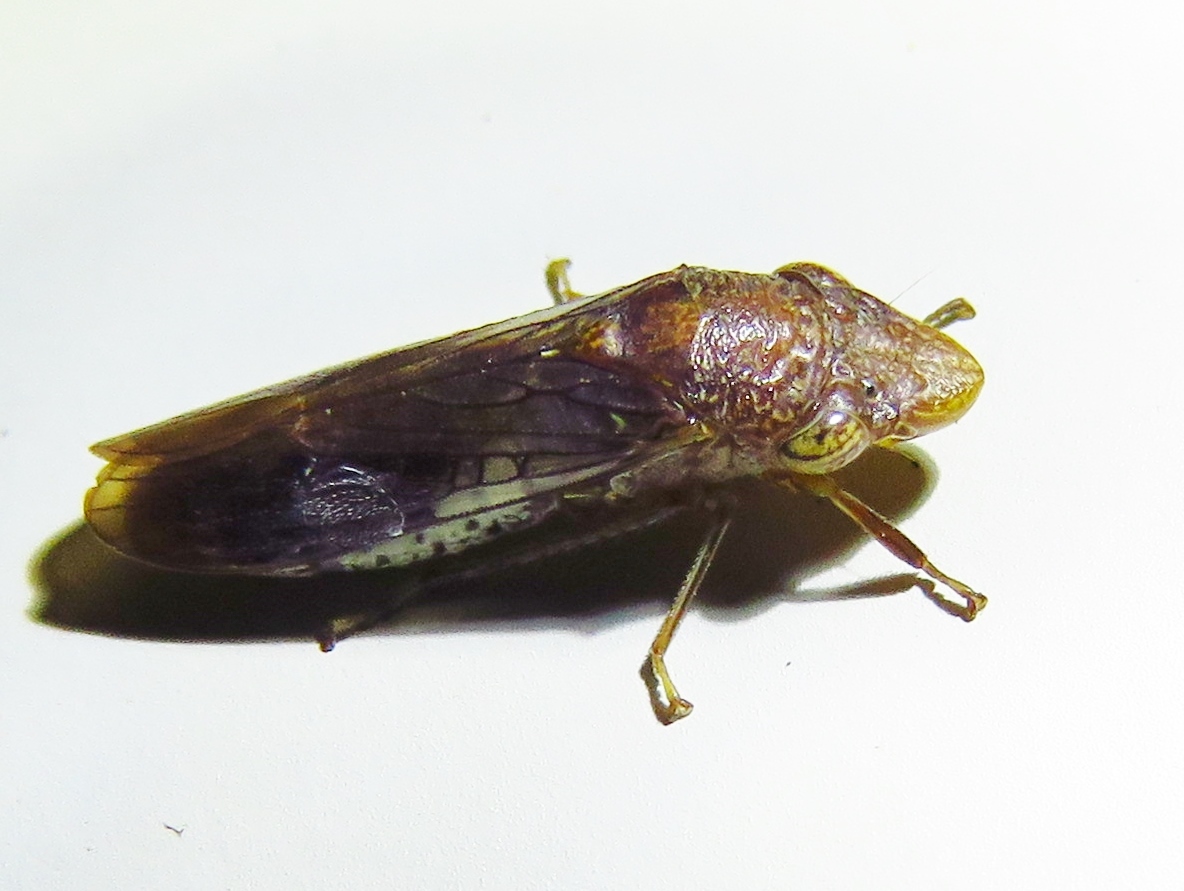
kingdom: Animalia
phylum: Arthropoda
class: Insecta
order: Hemiptera
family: Cicadellidae
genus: Homalodisca
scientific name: Homalodisca vitripennis
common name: Glassy-winged sharpshooter
